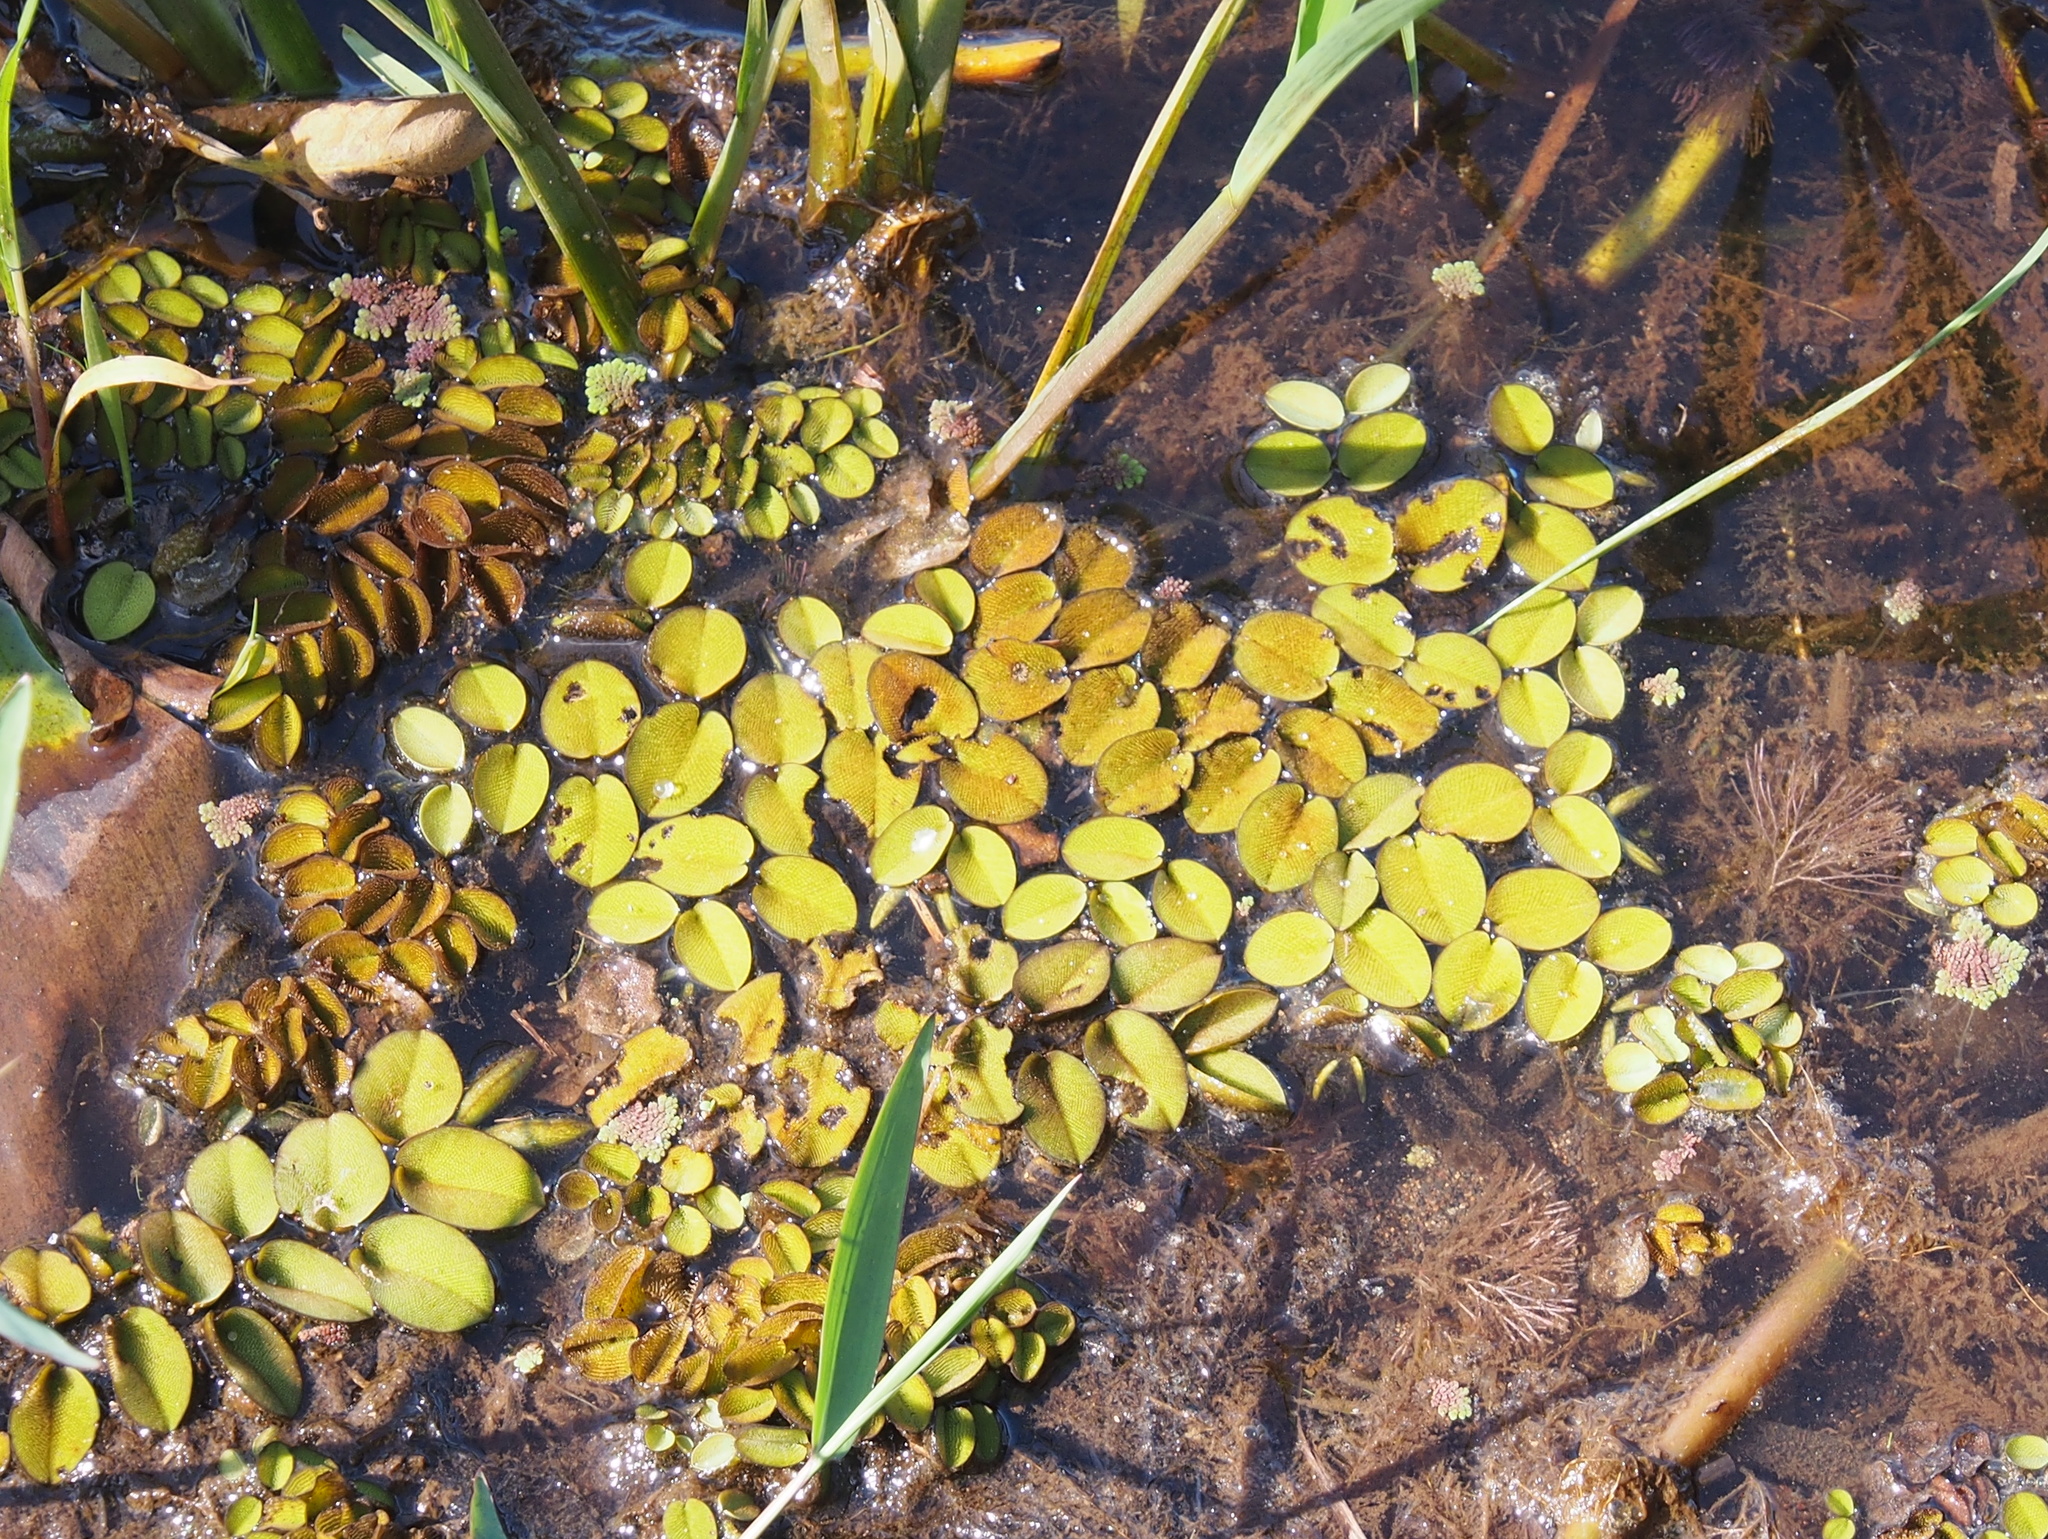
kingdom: Plantae
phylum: Tracheophyta
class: Polypodiopsida
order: Salviniales
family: Salviniaceae
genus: Salvinia
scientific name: Salvinia auriculata
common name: African payal
